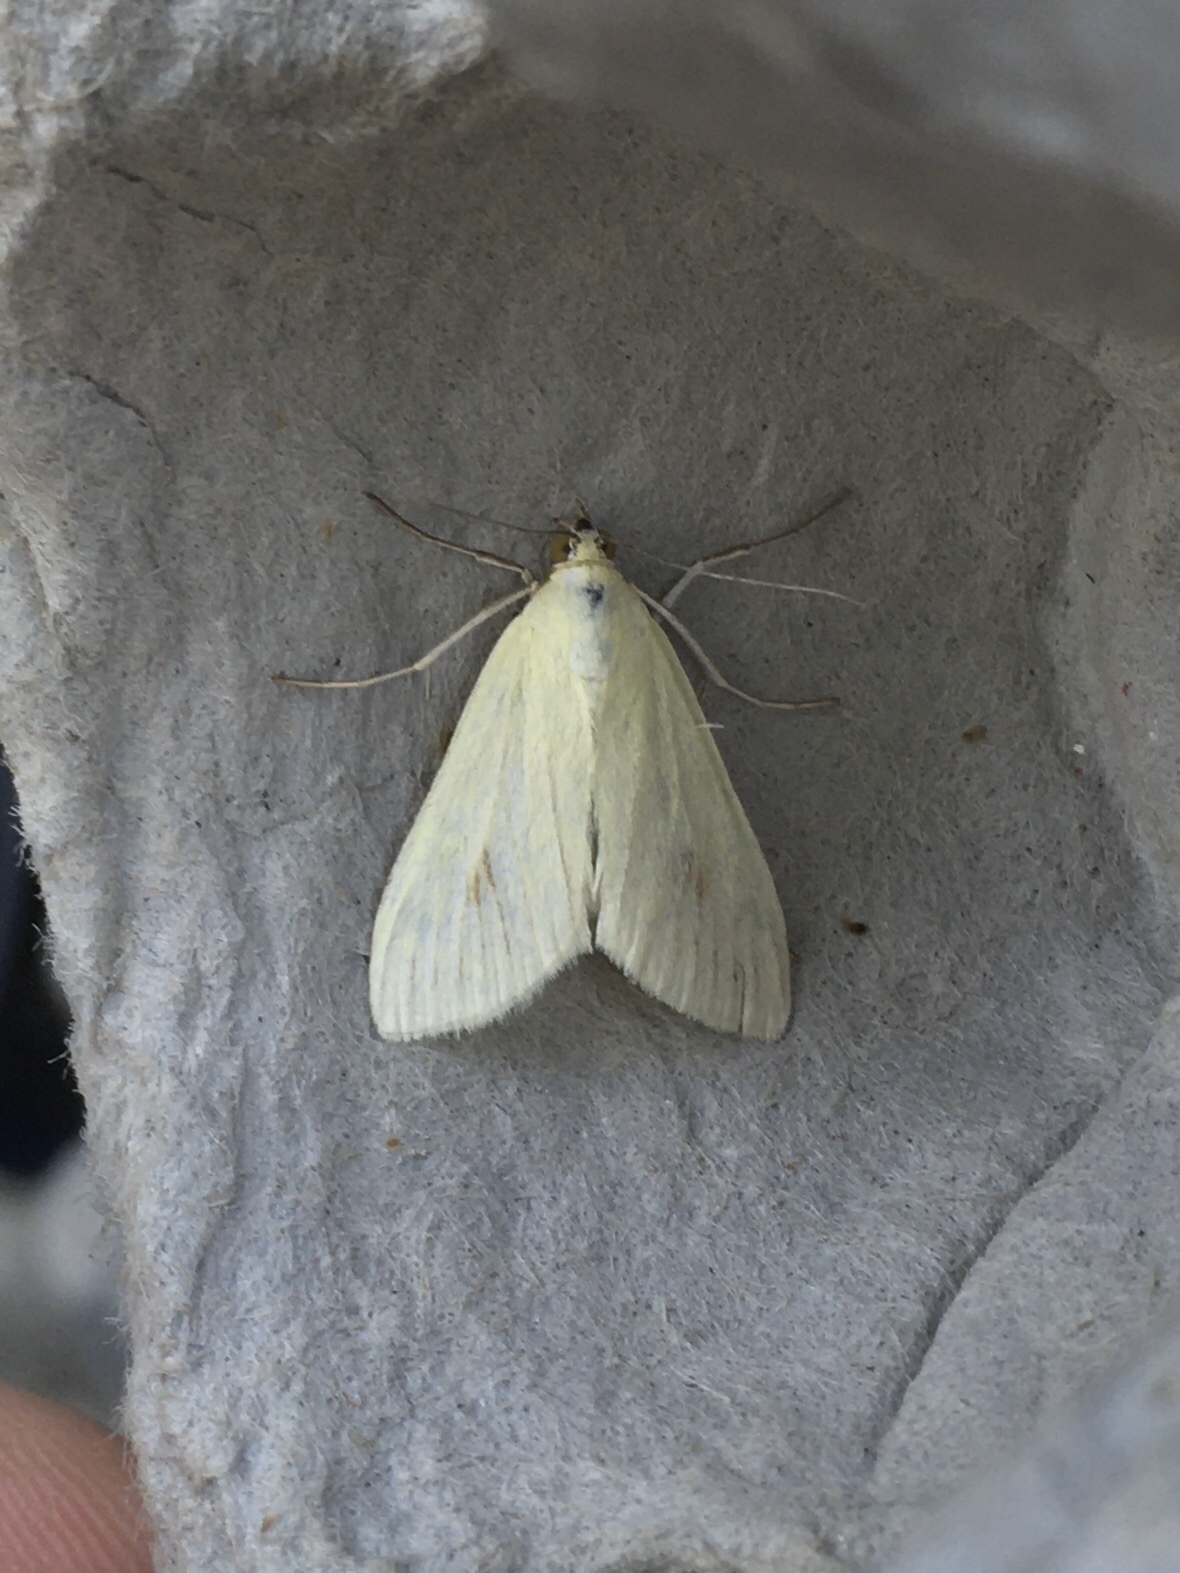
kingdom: Animalia
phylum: Arthropoda
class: Insecta
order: Lepidoptera
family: Crambidae
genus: Sitochroa
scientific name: Sitochroa palealis
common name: Greenish-yellow sitochroa moth
